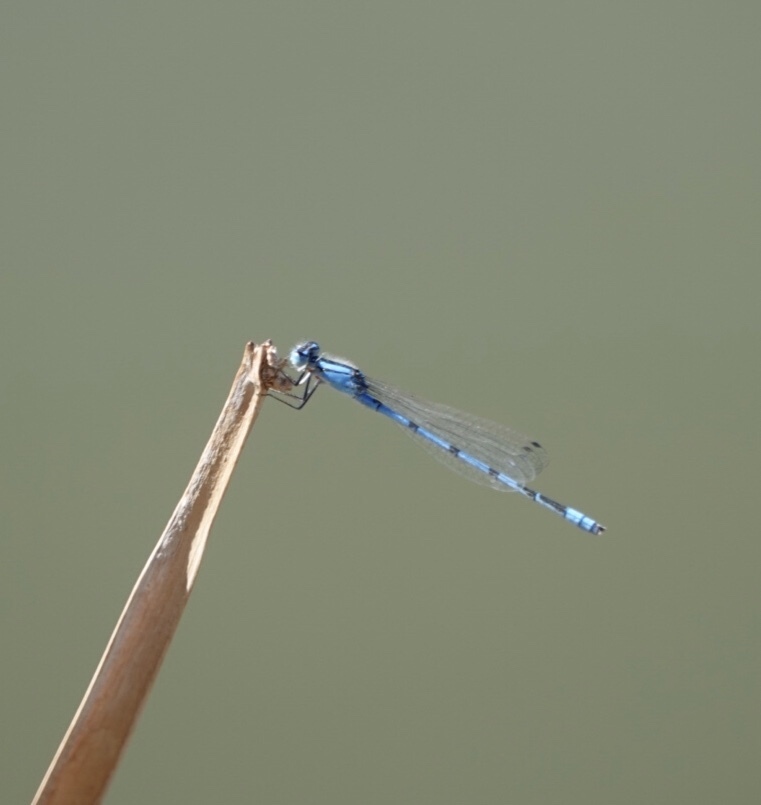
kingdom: Animalia
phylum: Arthropoda
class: Insecta
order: Odonata
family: Coenagrionidae
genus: Enallagma
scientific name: Enallagma civile
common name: Damselfly
